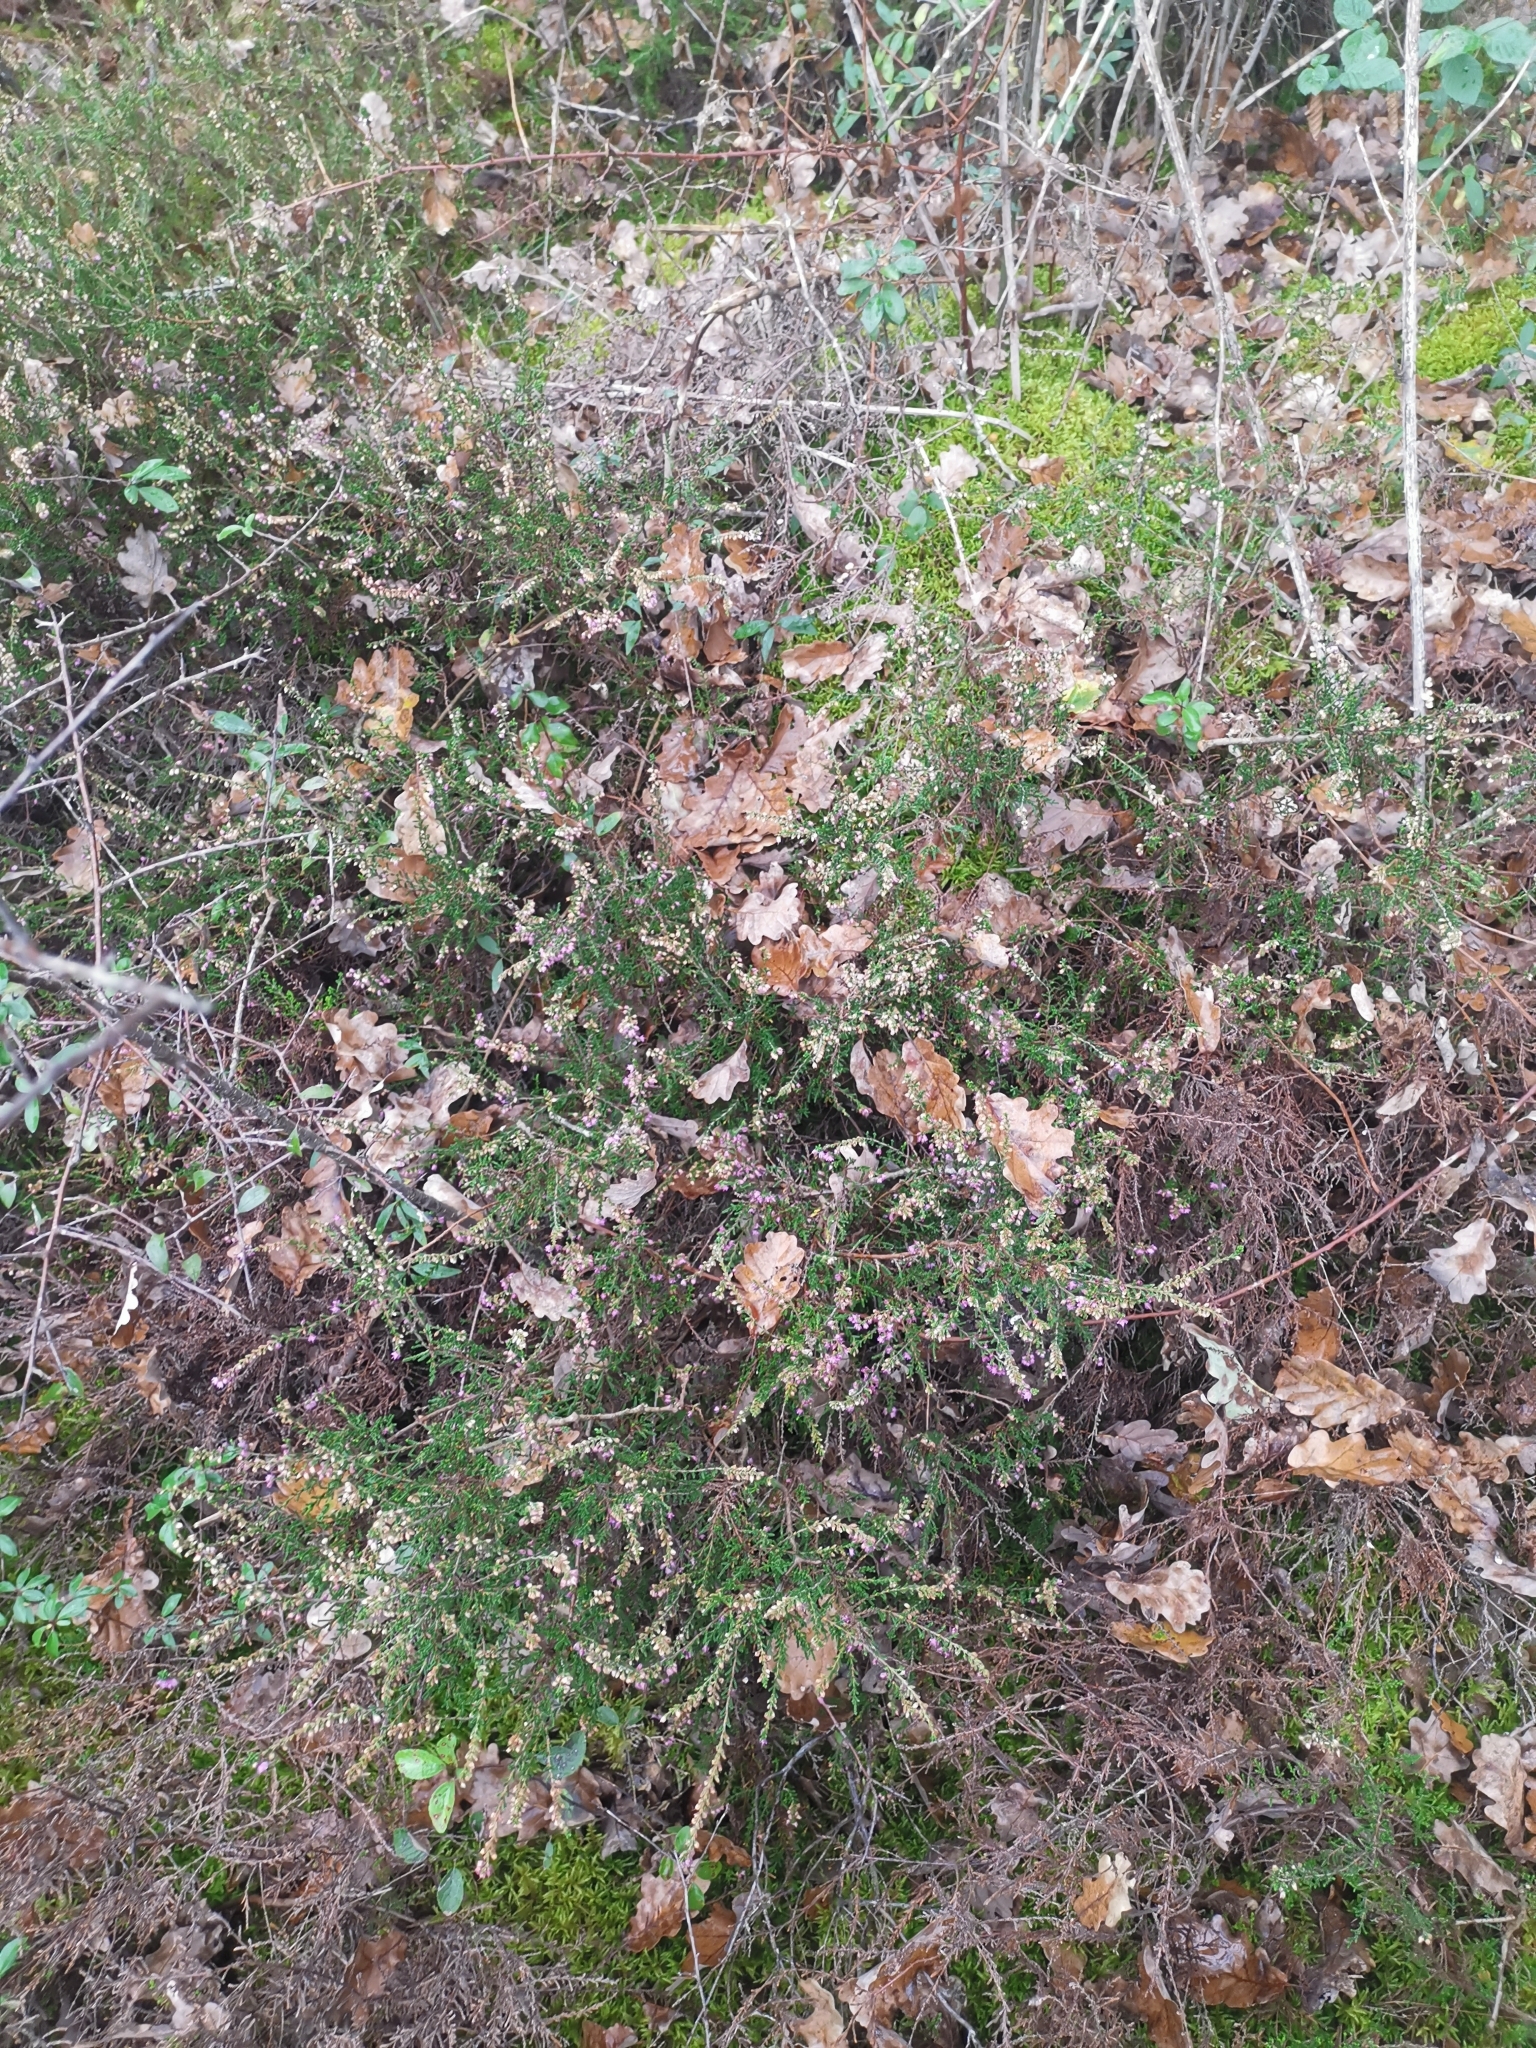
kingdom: Plantae
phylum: Tracheophyta
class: Magnoliopsida
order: Ericales
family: Ericaceae
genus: Calluna
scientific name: Calluna vulgaris
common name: Heather
